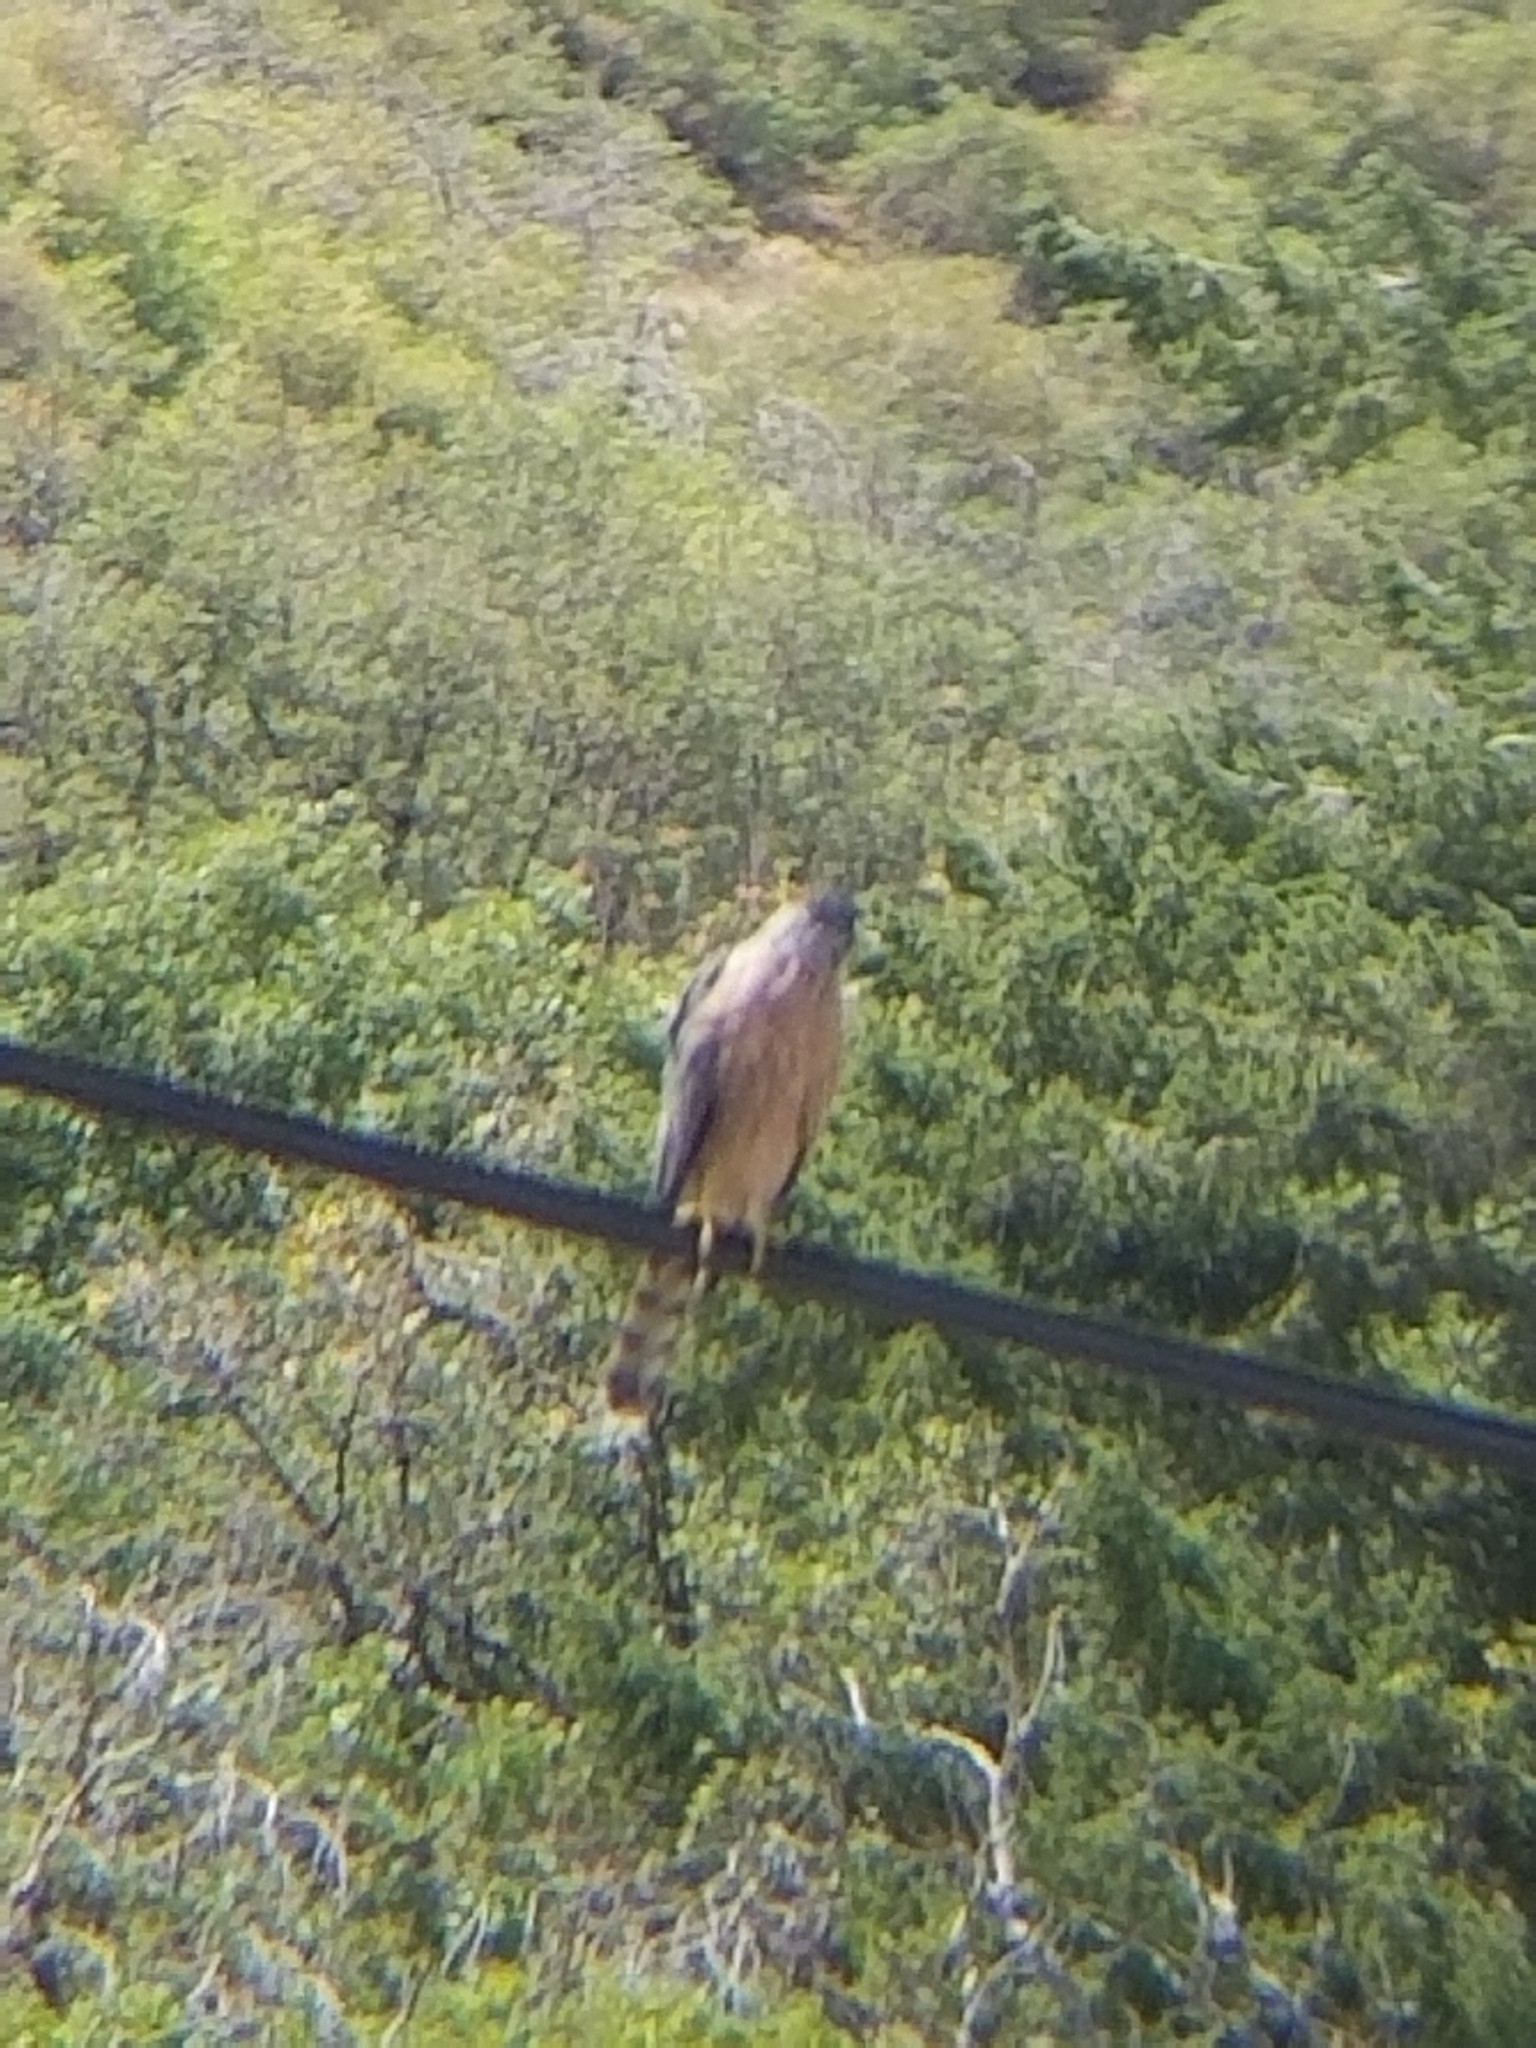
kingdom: Animalia
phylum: Chordata
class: Aves
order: Accipitriformes
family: Accipitridae
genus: Accipiter
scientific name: Accipiter cooperii
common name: Cooper's hawk
